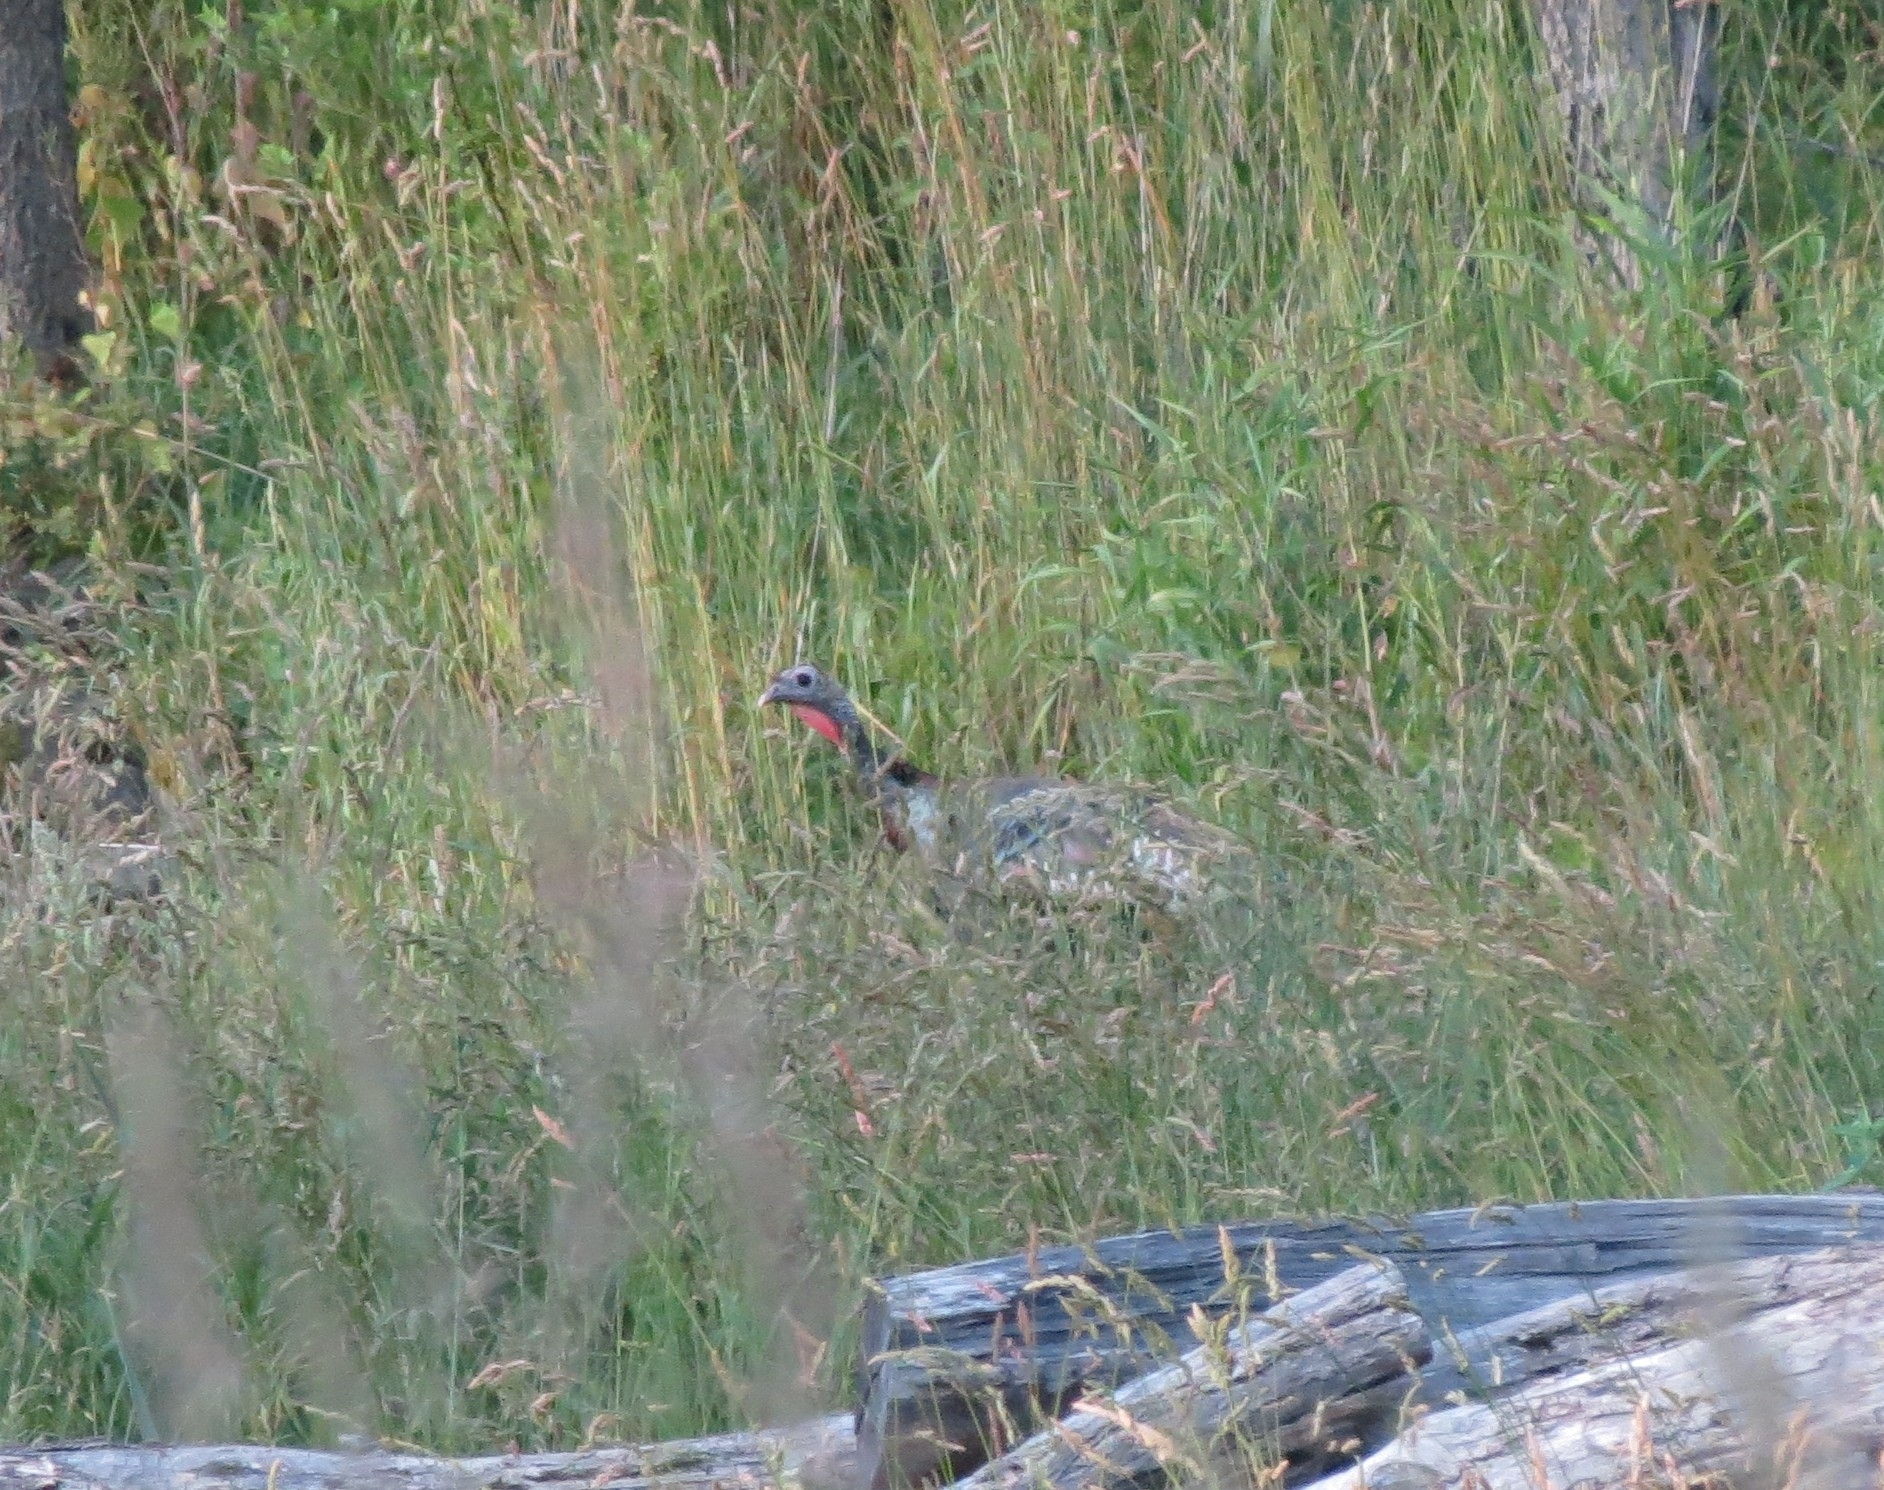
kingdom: Animalia
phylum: Chordata
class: Aves
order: Galliformes
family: Phasianidae
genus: Meleagris
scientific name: Meleagris gallopavo
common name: Wild turkey
